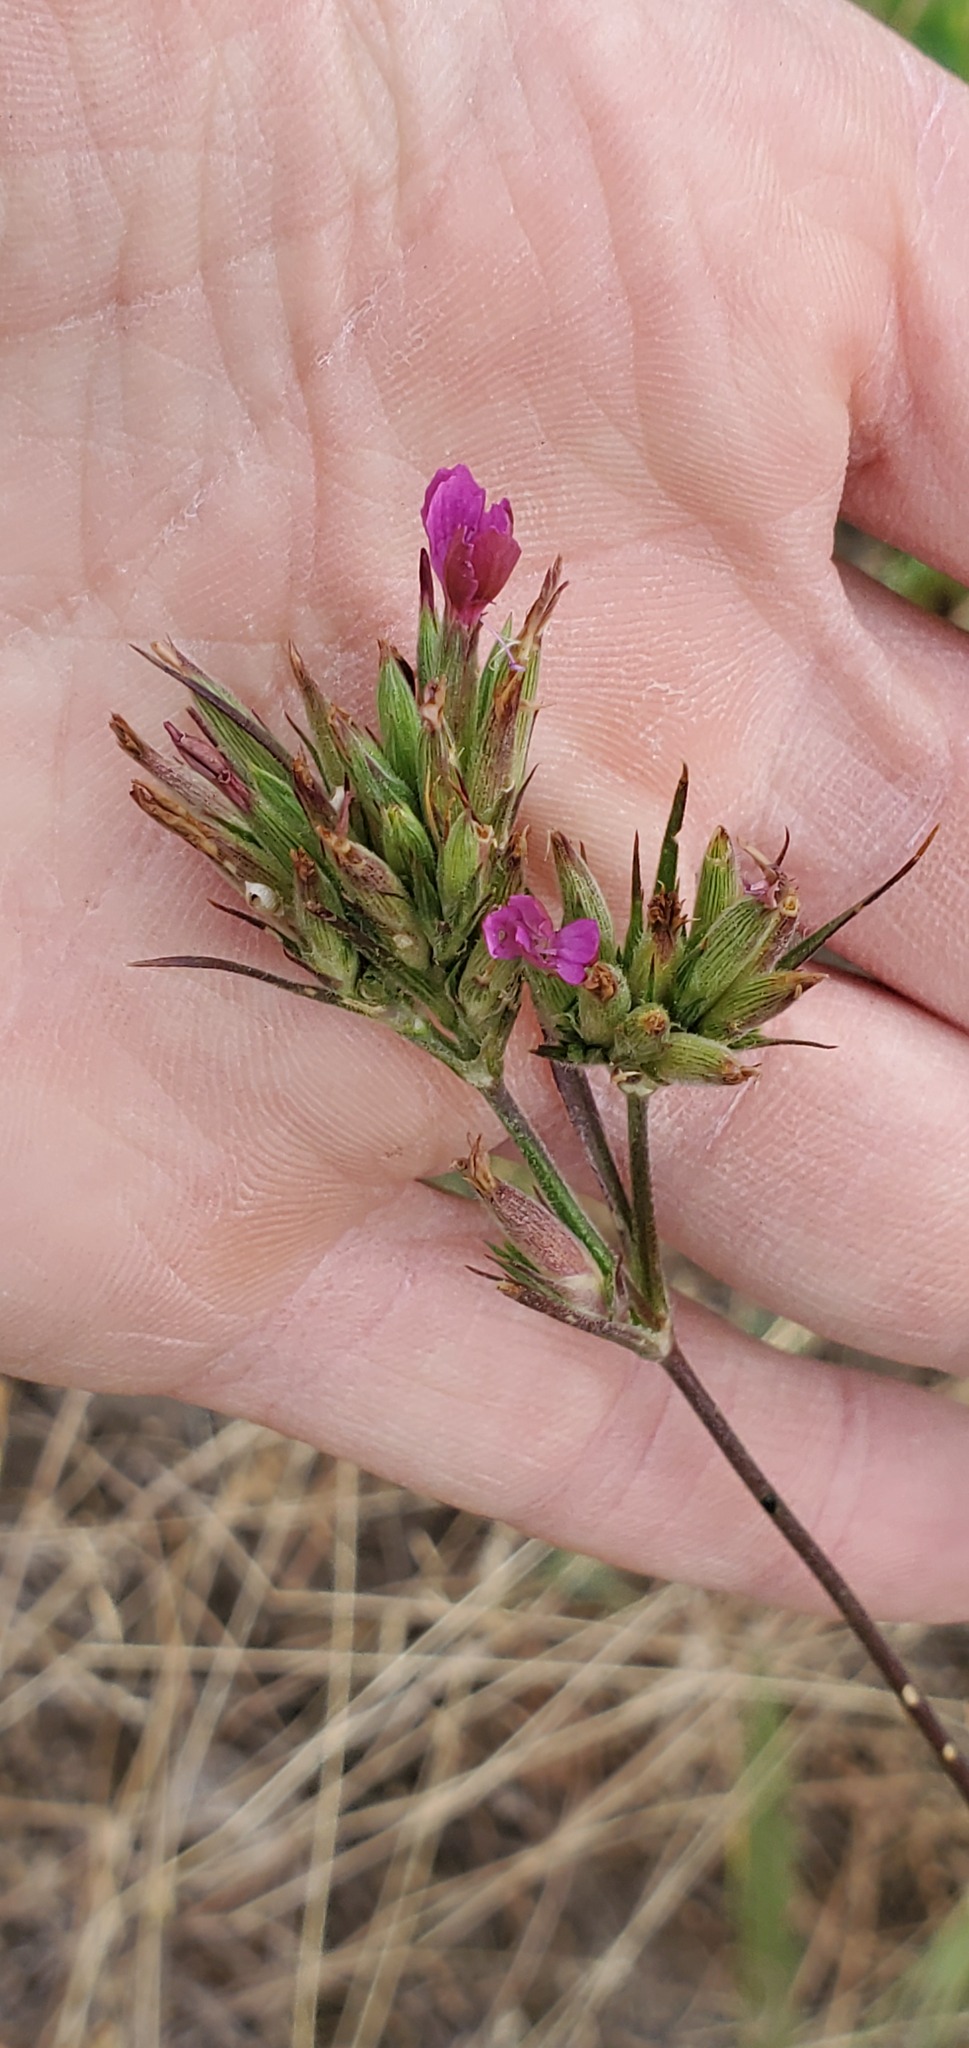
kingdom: Plantae
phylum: Tracheophyta
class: Magnoliopsida
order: Caryophyllales
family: Caryophyllaceae
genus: Dianthus
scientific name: Dianthus armeria
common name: Deptford pink
